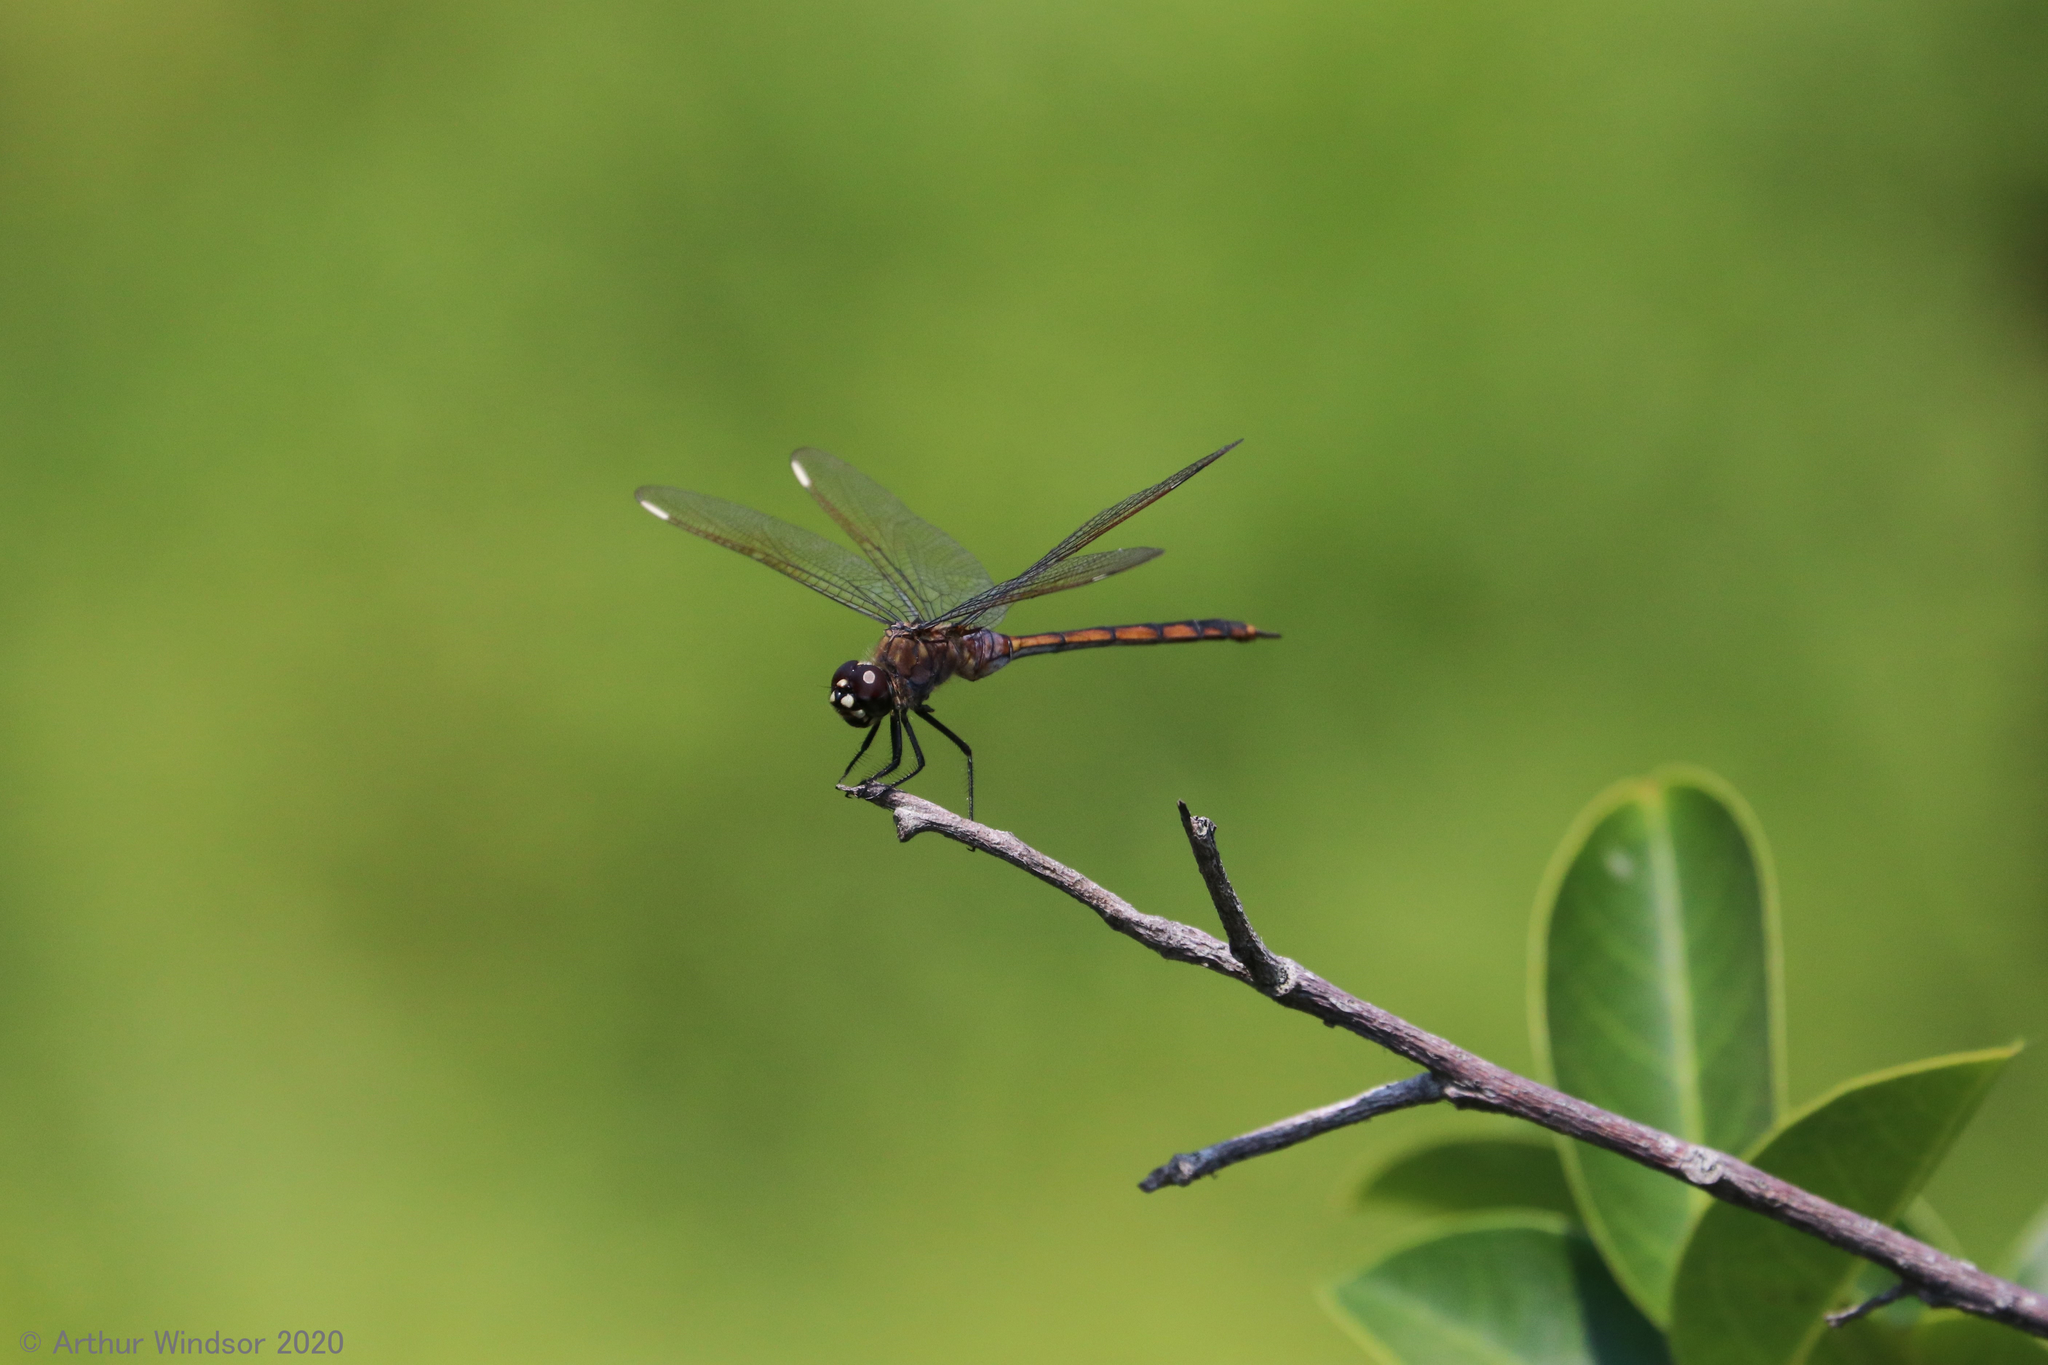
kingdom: Animalia
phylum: Arthropoda
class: Insecta
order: Odonata
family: Libellulidae
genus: Brachymesia
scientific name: Brachymesia gravida
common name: Four-spotted pennant
